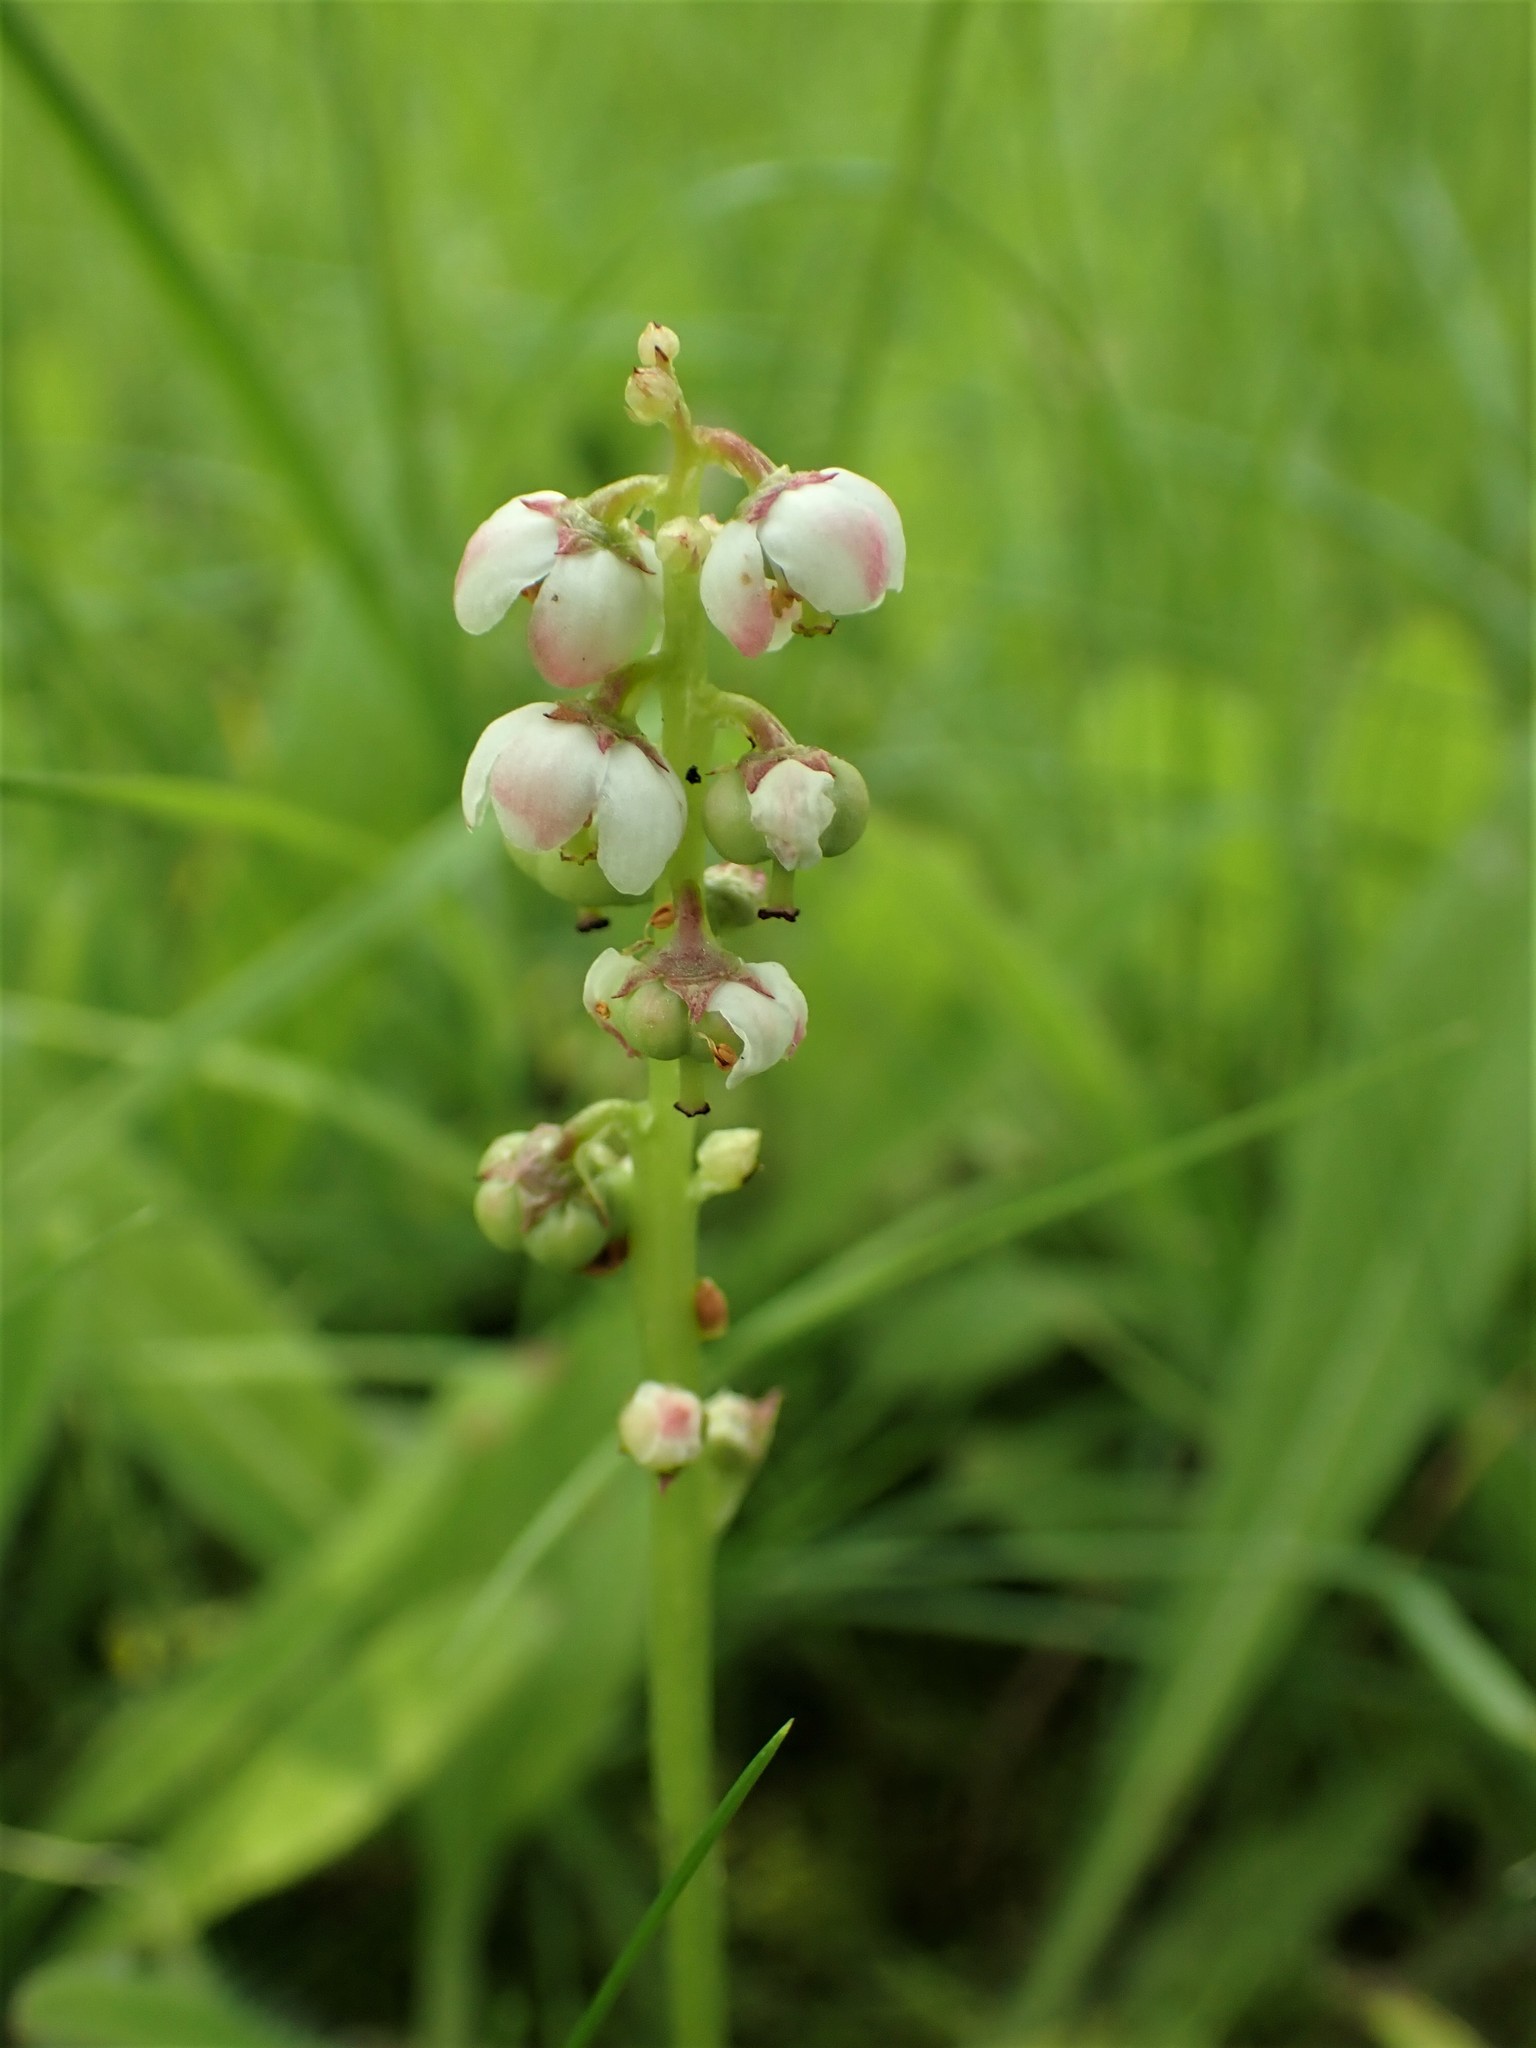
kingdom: Plantae
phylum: Tracheophyta
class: Magnoliopsida
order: Ericales
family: Ericaceae
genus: Pyrola
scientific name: Pyrola minor
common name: Common wintergreen
